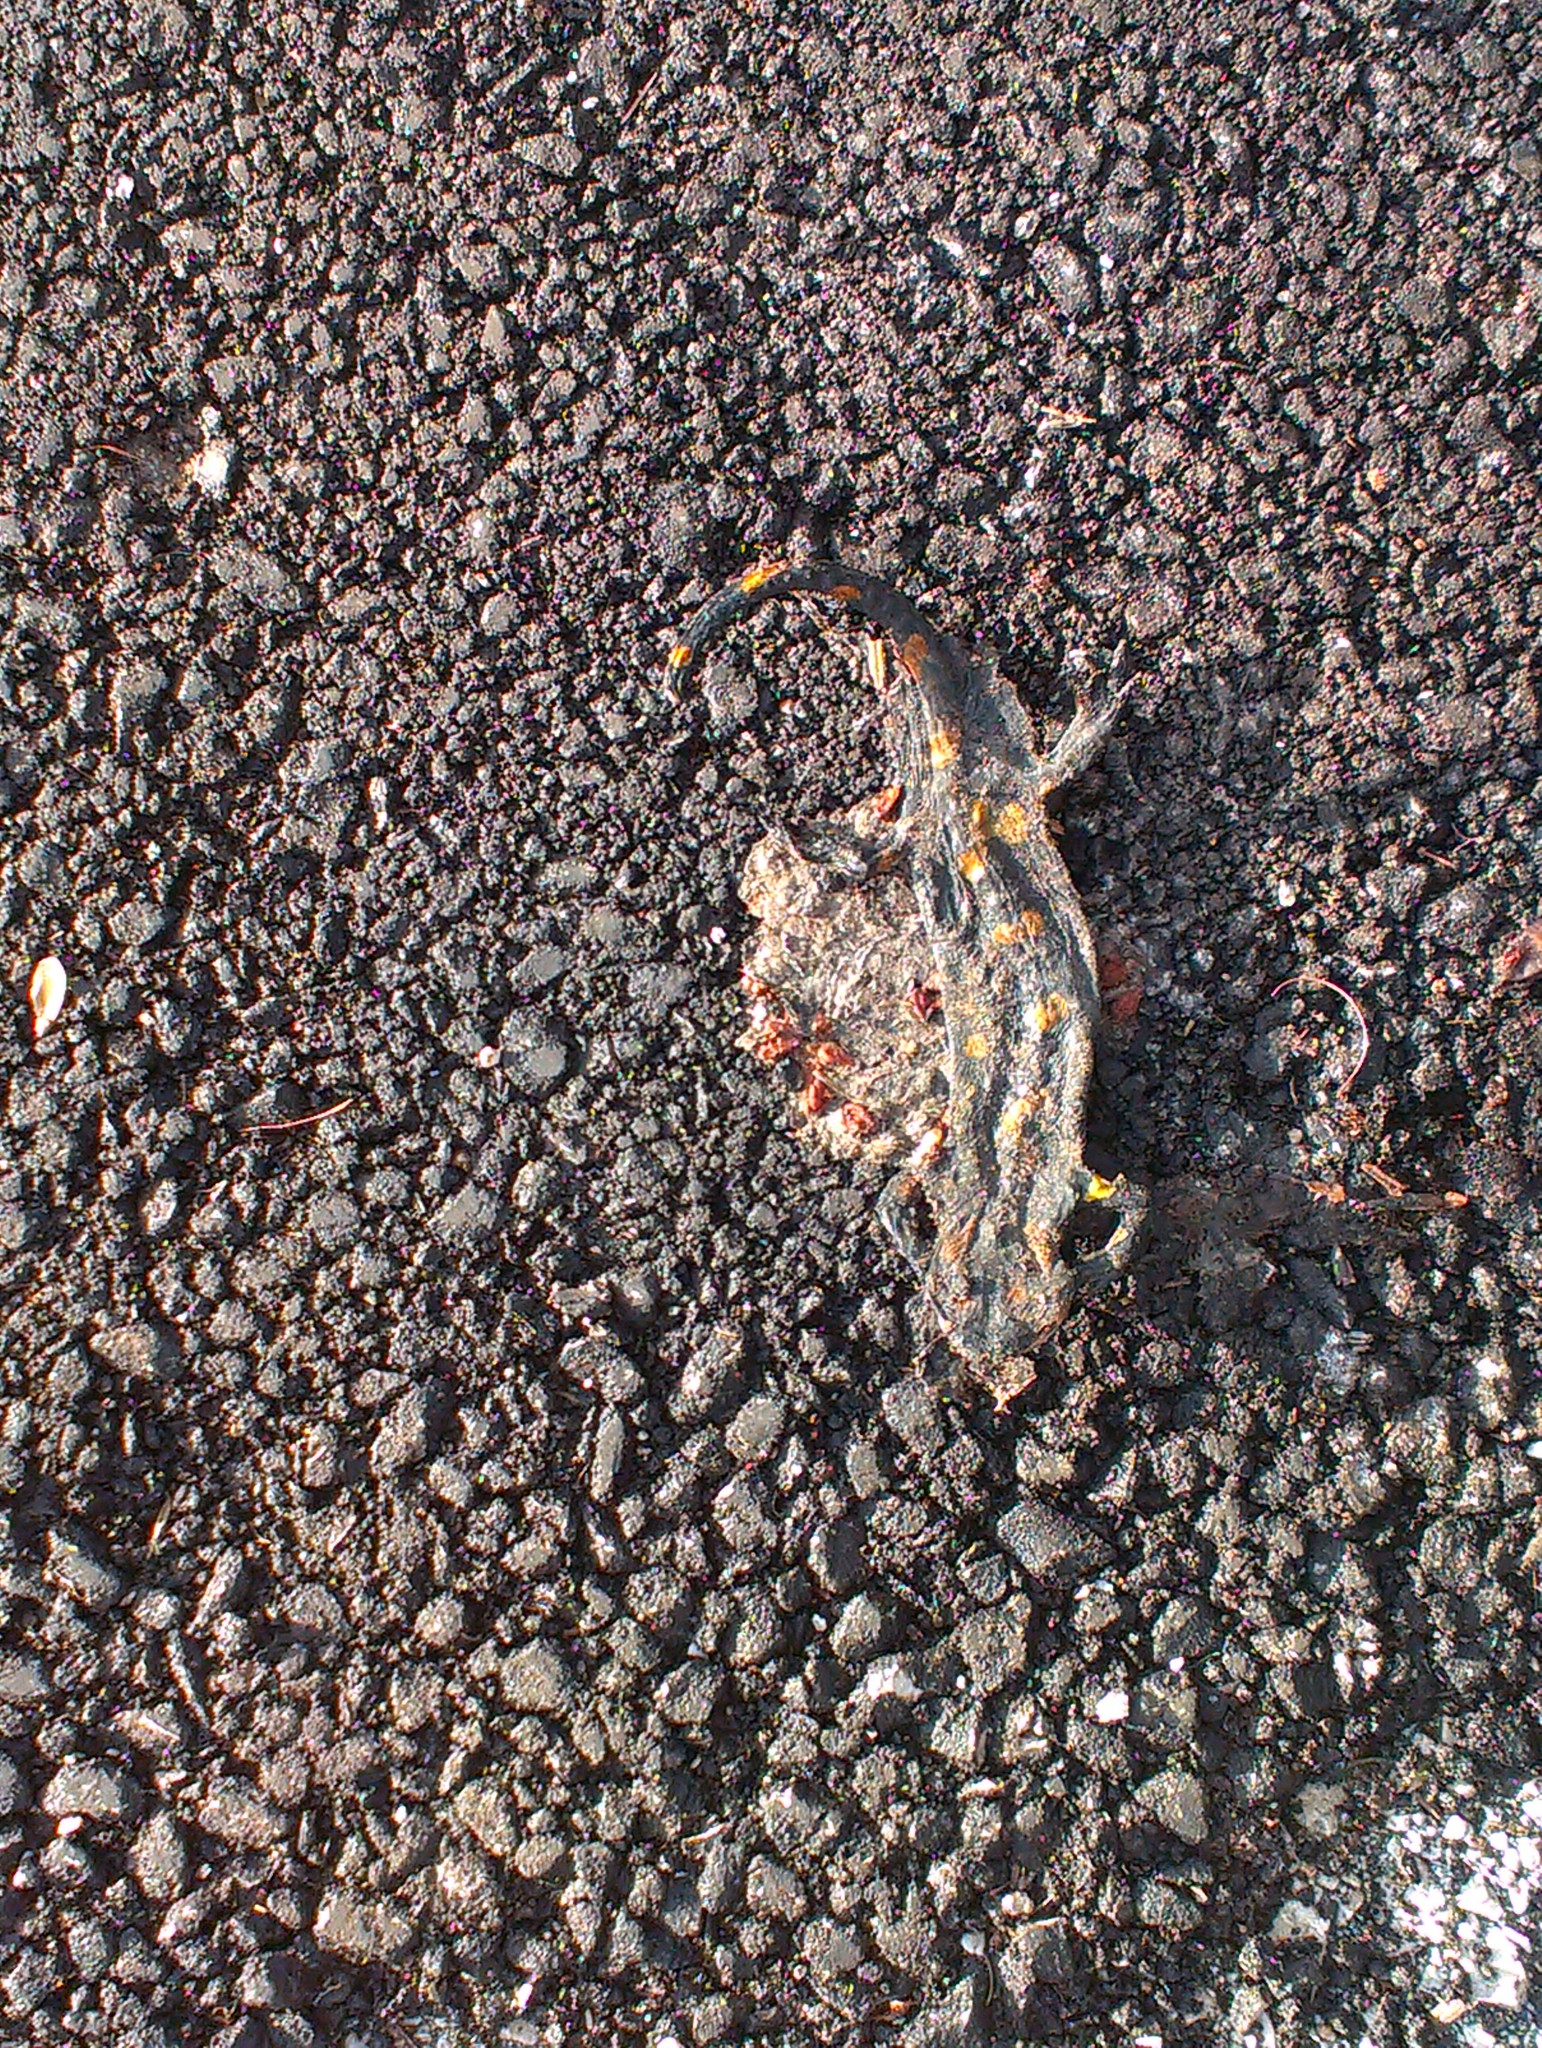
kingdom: Animalia
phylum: Chordata
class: Amphibia
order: Caudata
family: Salamandridae
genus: Salamandra
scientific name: Salamandra salamandra
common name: Fire salamander
